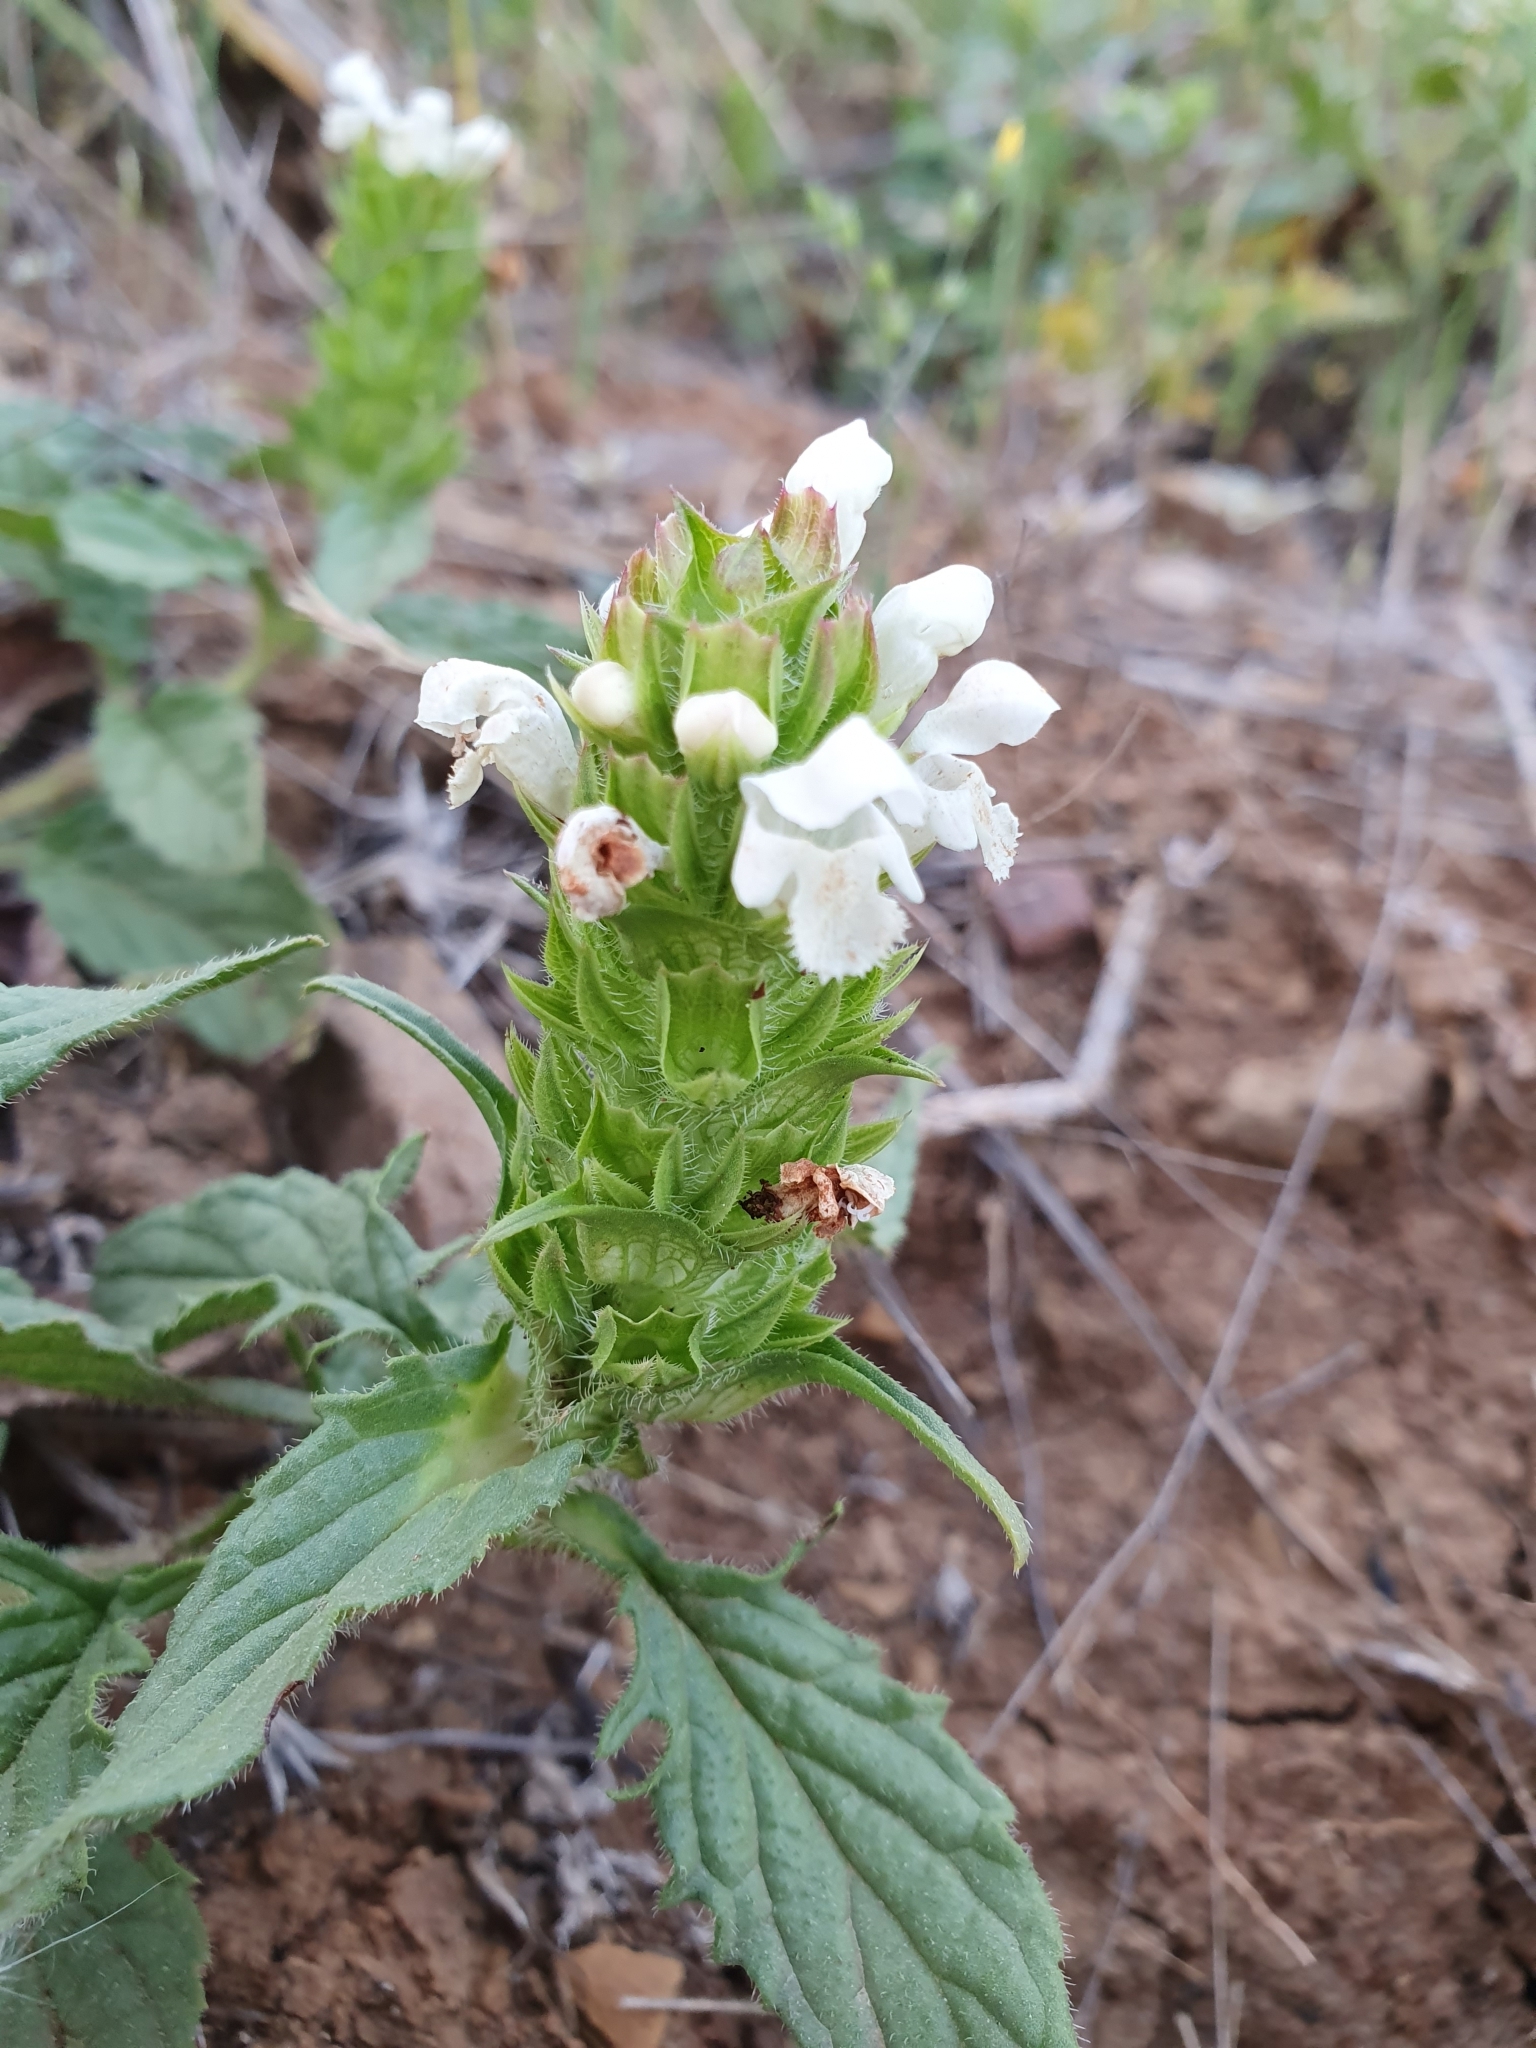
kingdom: Plantae
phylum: Tracheophyta
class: Magnoliopsida
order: Lamiales
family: Lamiaceae
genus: Prunella
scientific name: Prunella laciniata
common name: Cut-leaved selfheal
